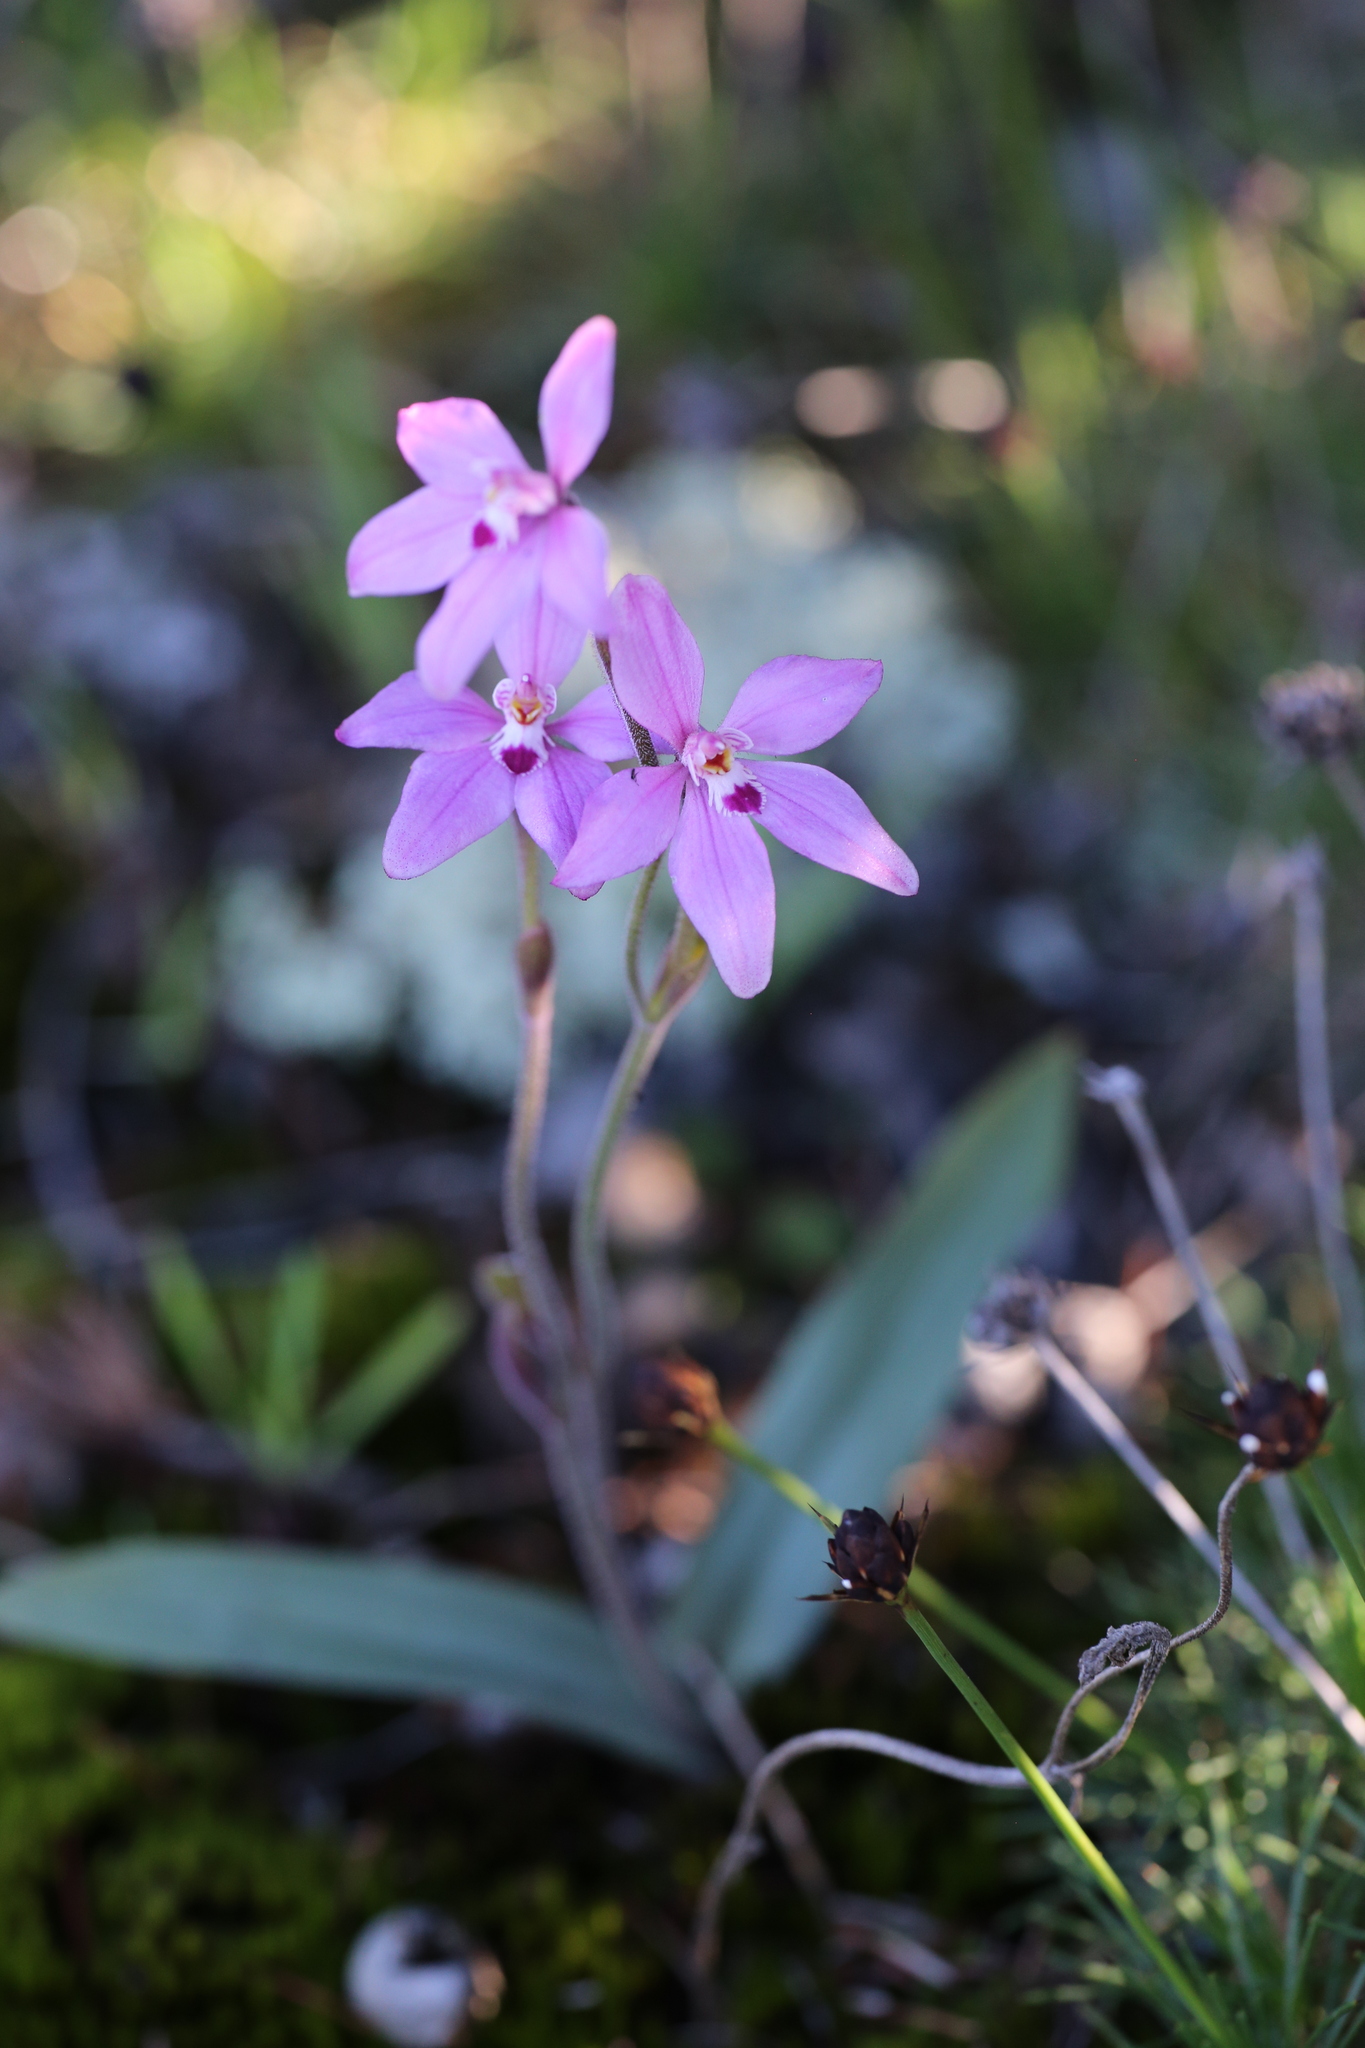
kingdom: Plantae
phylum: Tracheophyta
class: Liliopsida
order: Asparagales
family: Orchidaceae
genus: Caladenia
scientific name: Caladenia reptans
